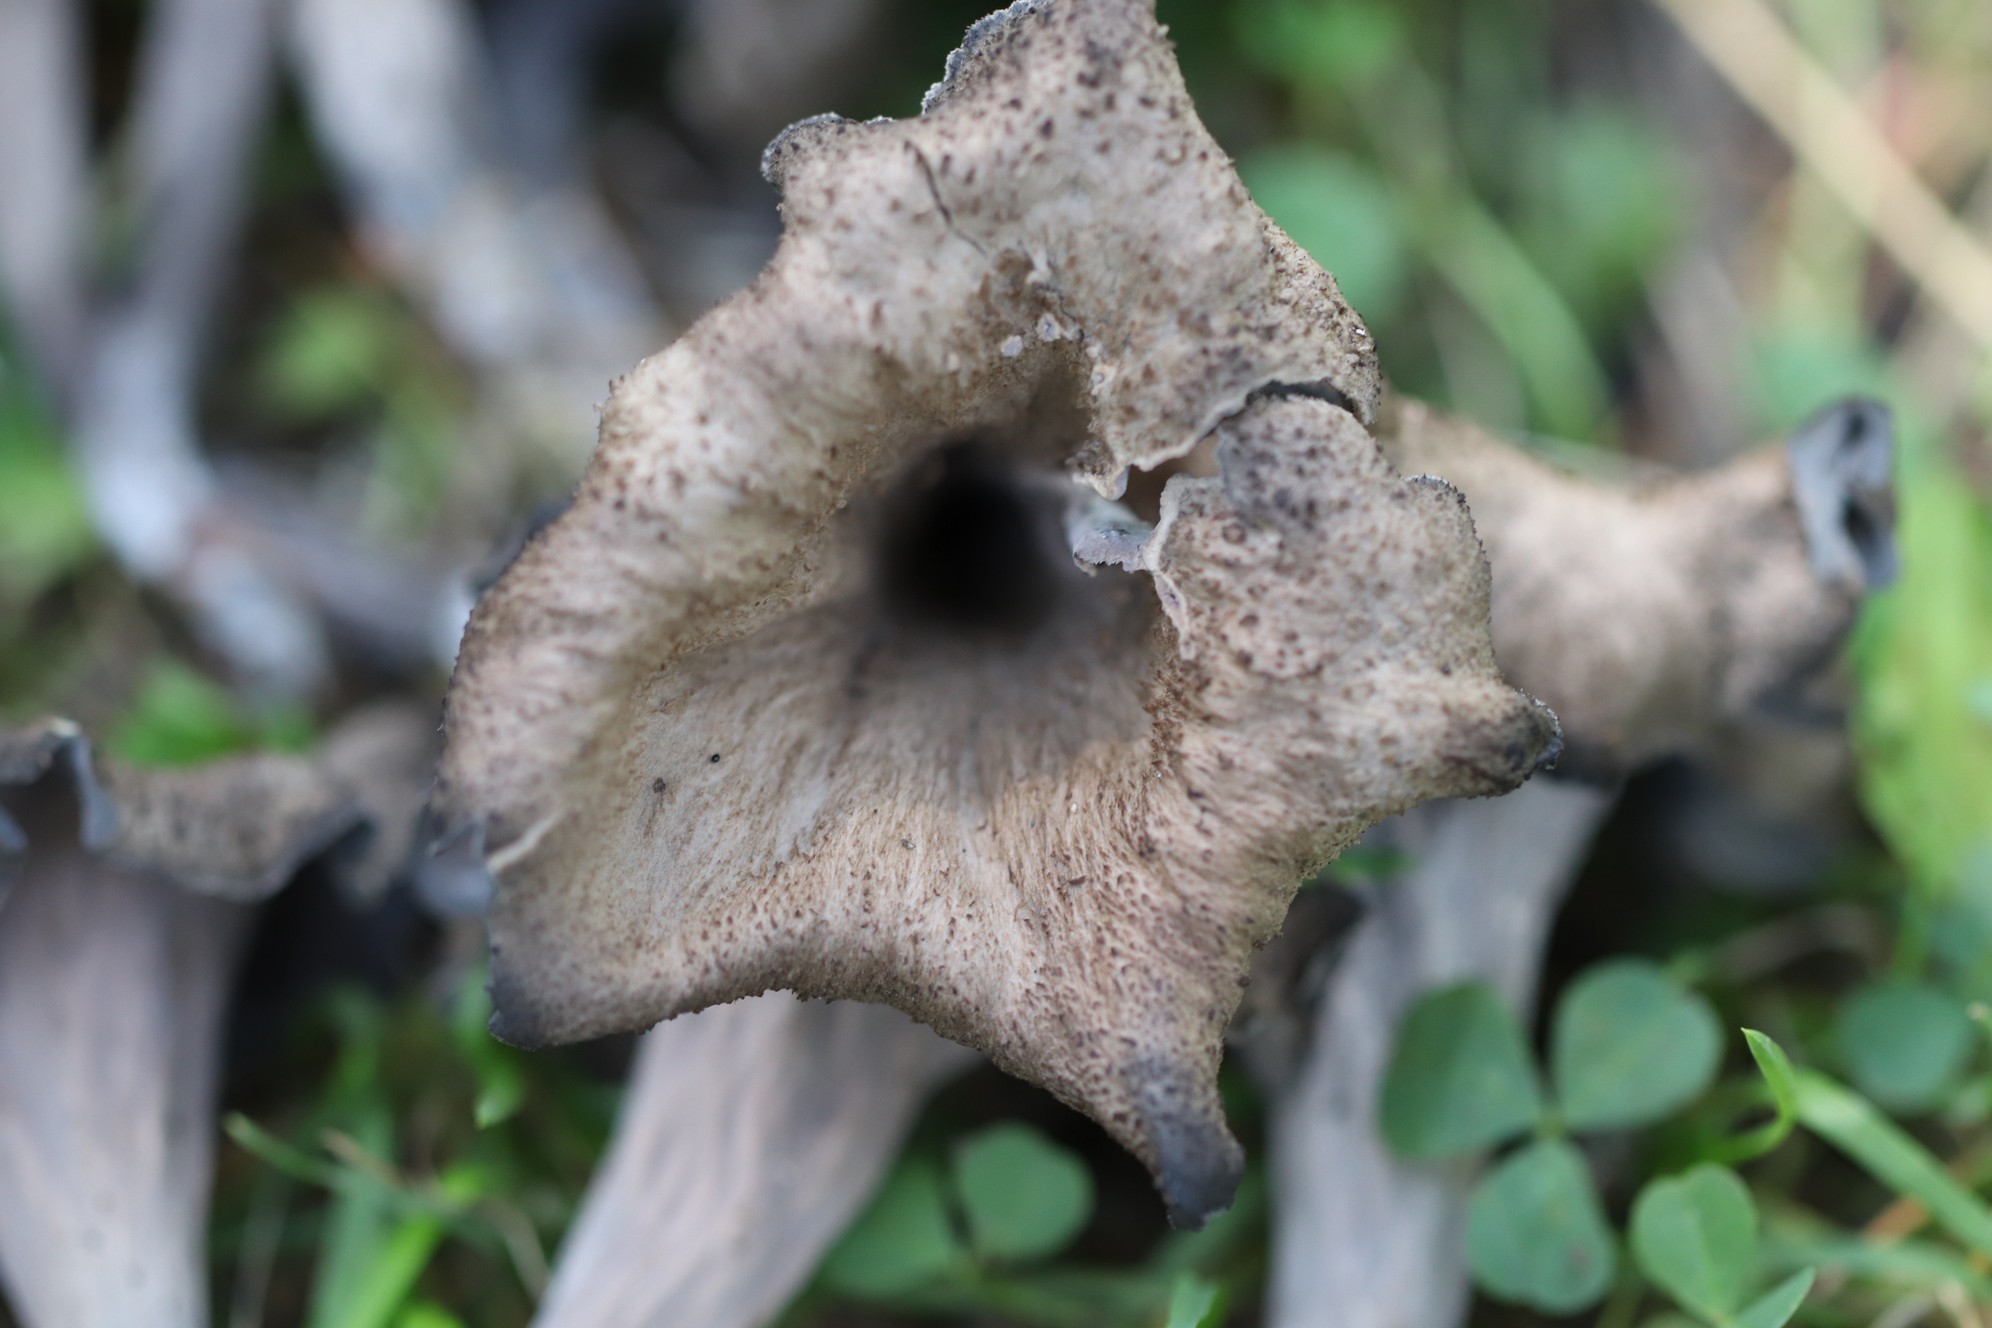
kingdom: Fungi
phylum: Basidiomycota
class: Agaricomycetes
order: Cantharellales
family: Hydnaceae
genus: Craterellus
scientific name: Craterellus cornucopioides
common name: Horn of plenty
